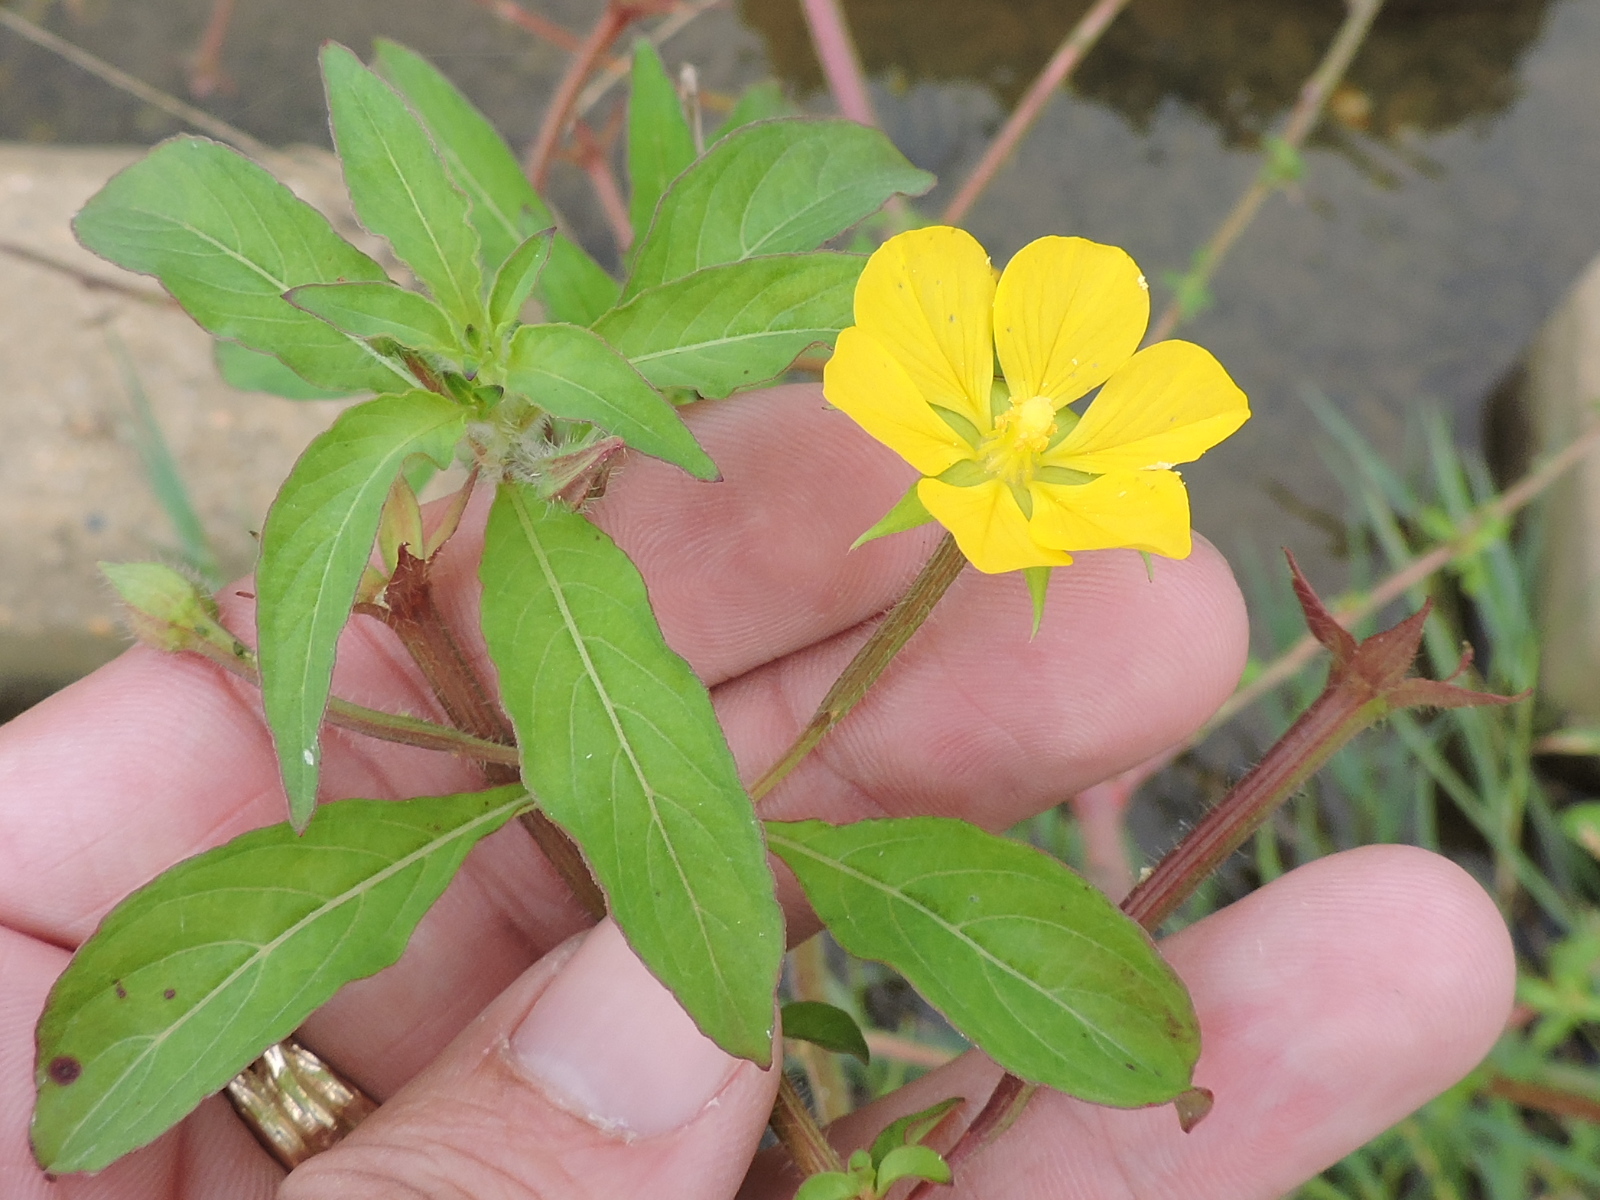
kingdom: Plantae
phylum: Tracheophyta
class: Magnoliopsida
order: Myrtales
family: Onagraceae
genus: Ludwigia
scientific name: Ludwigia leptocarpa
